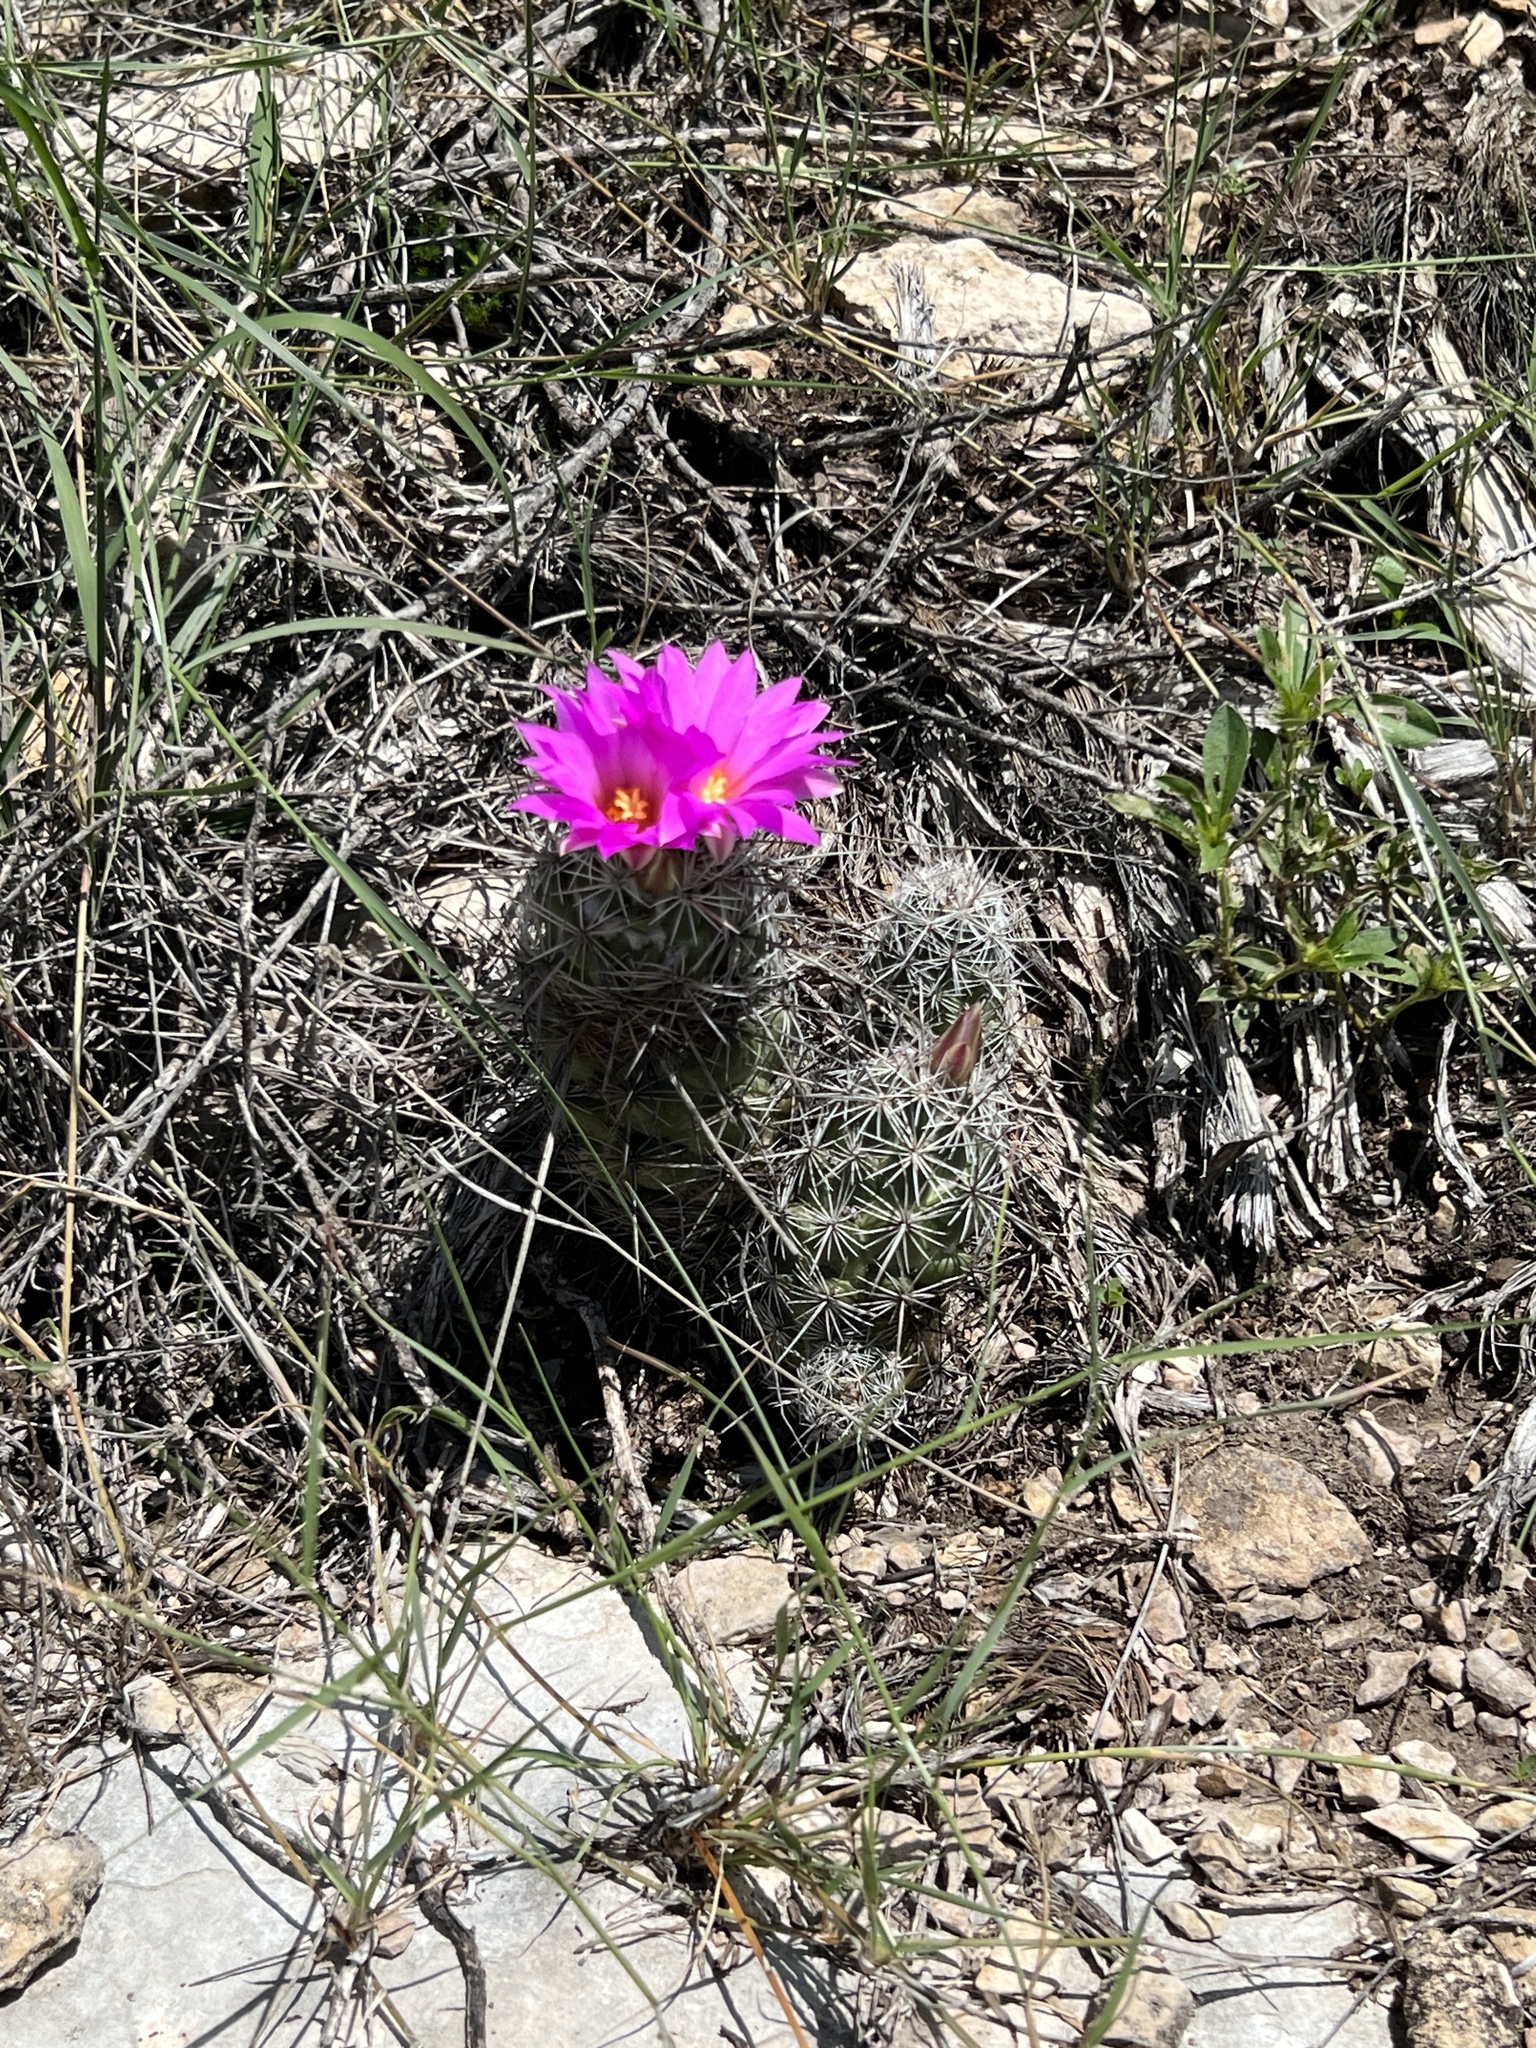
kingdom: Plantae
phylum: Tracheophyta
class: Magnoliopsida
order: Caryophyllales
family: Cactaceae
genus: Cochemiea
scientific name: Cochemiea conoidea
